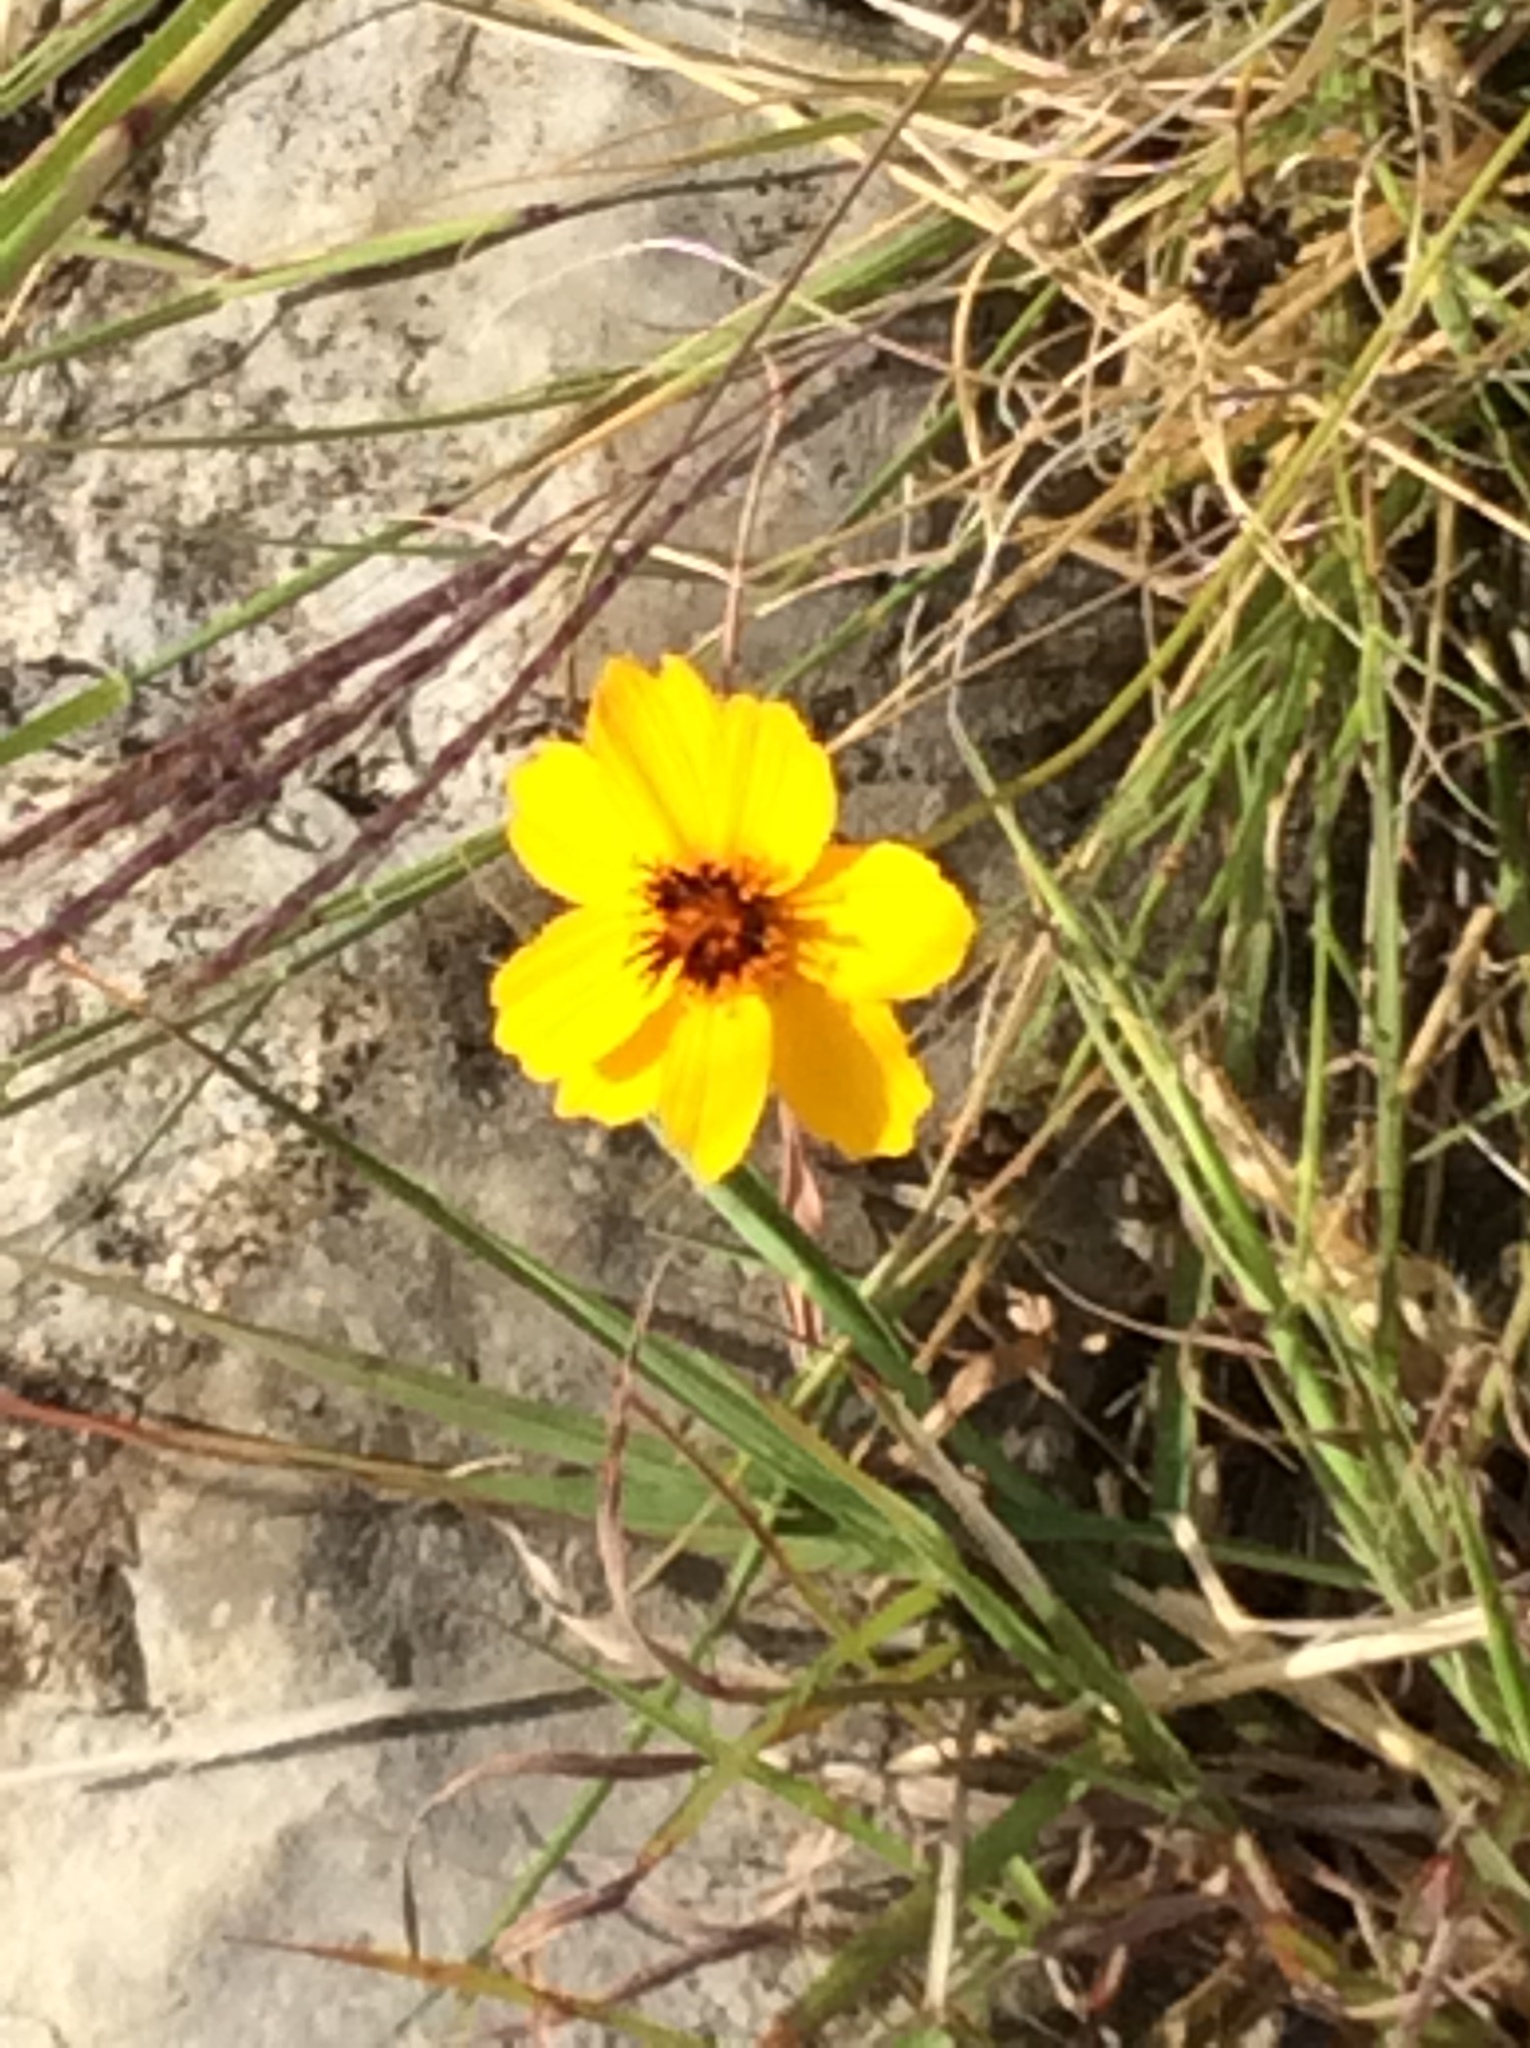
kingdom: Plantae
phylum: Tracheophyta
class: Magnoliopsida
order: Asterales
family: Asteraceae
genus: Thelesperma
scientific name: Thelesperma filifolium
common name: Stiff greenthread
